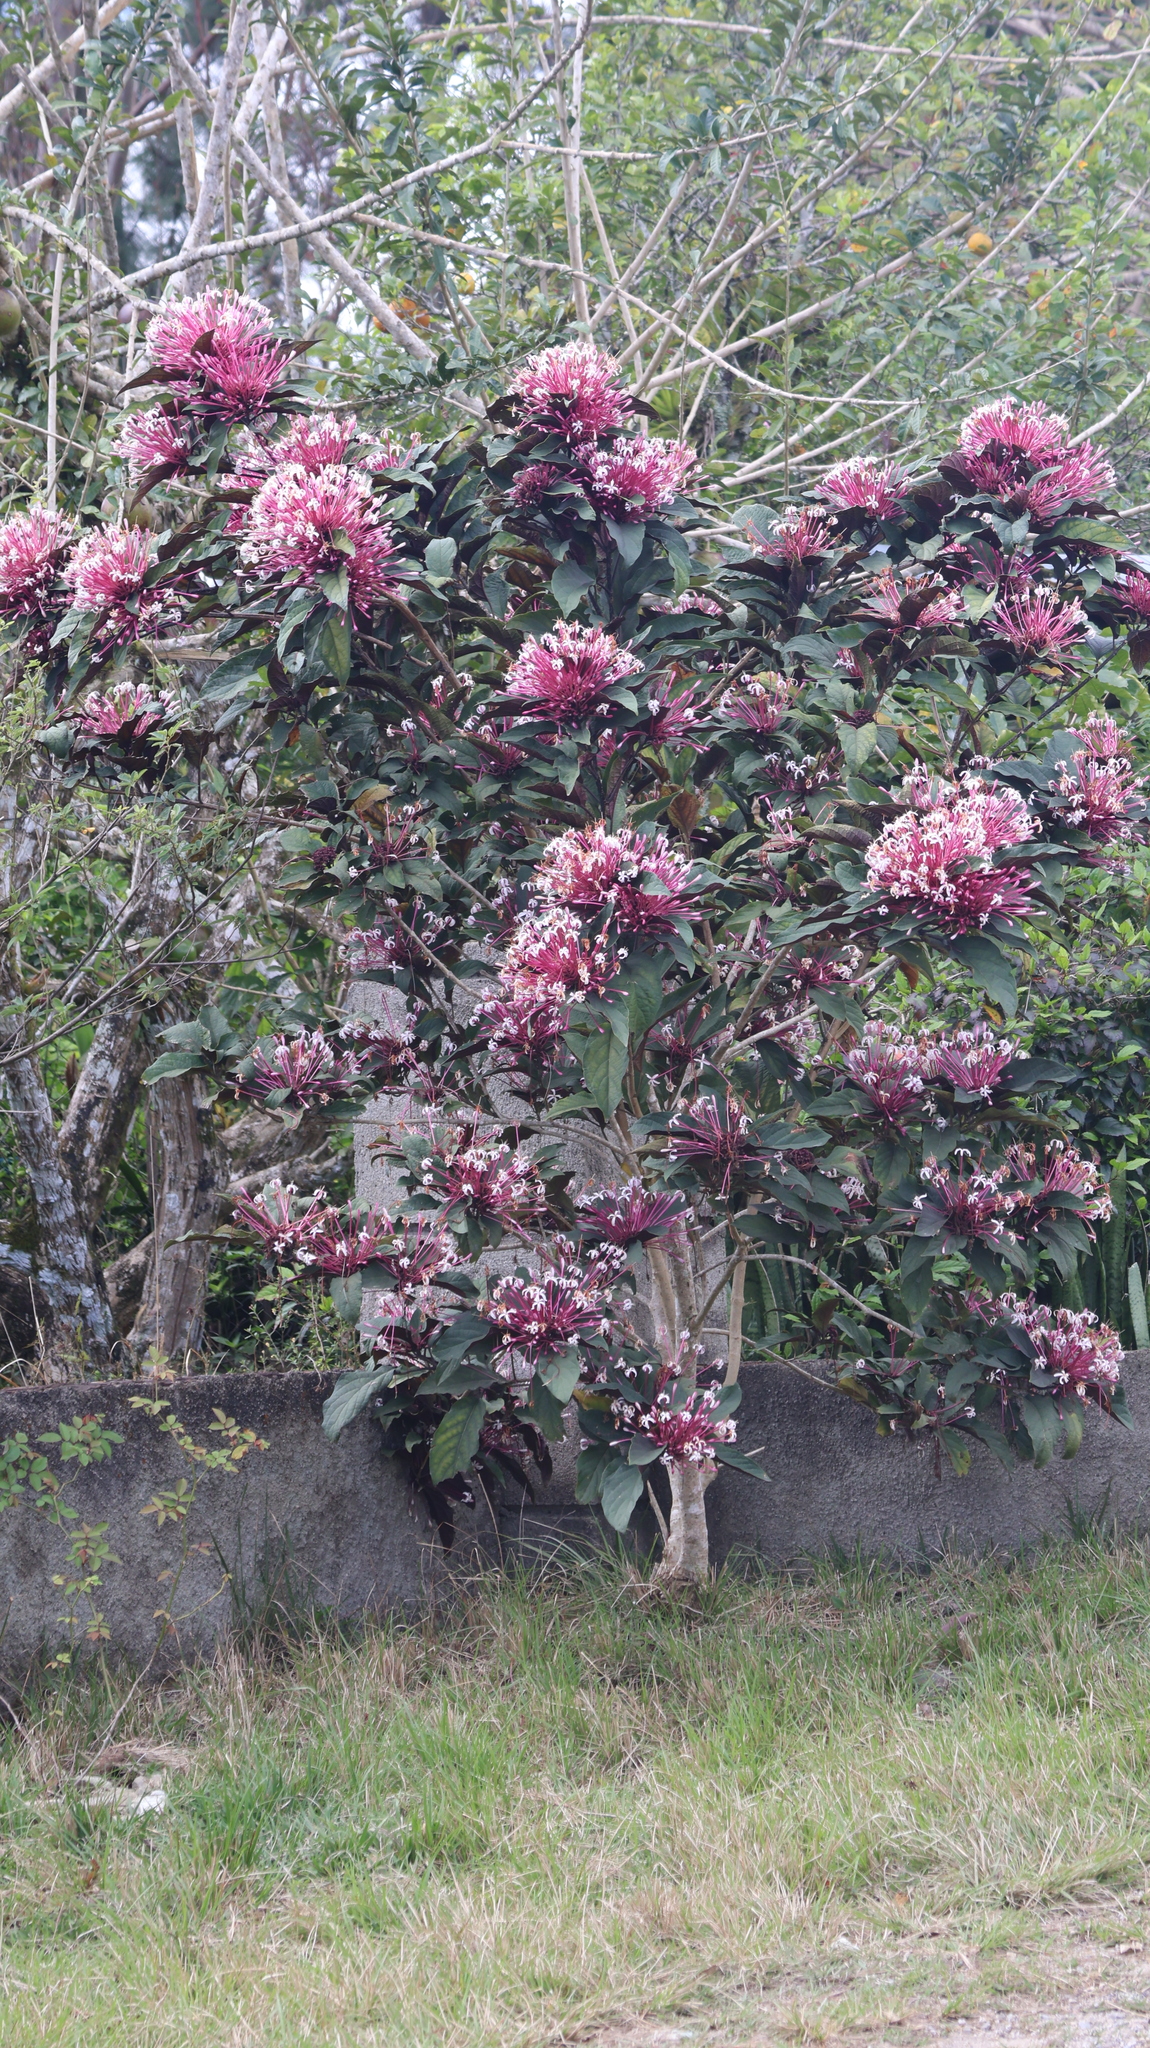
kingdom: Plantae
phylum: Tracheophyta
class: Magnoliopsida
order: Lamiales
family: Lamiaceae
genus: Clerodendrum
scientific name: Clerodendrum quadriloculare
